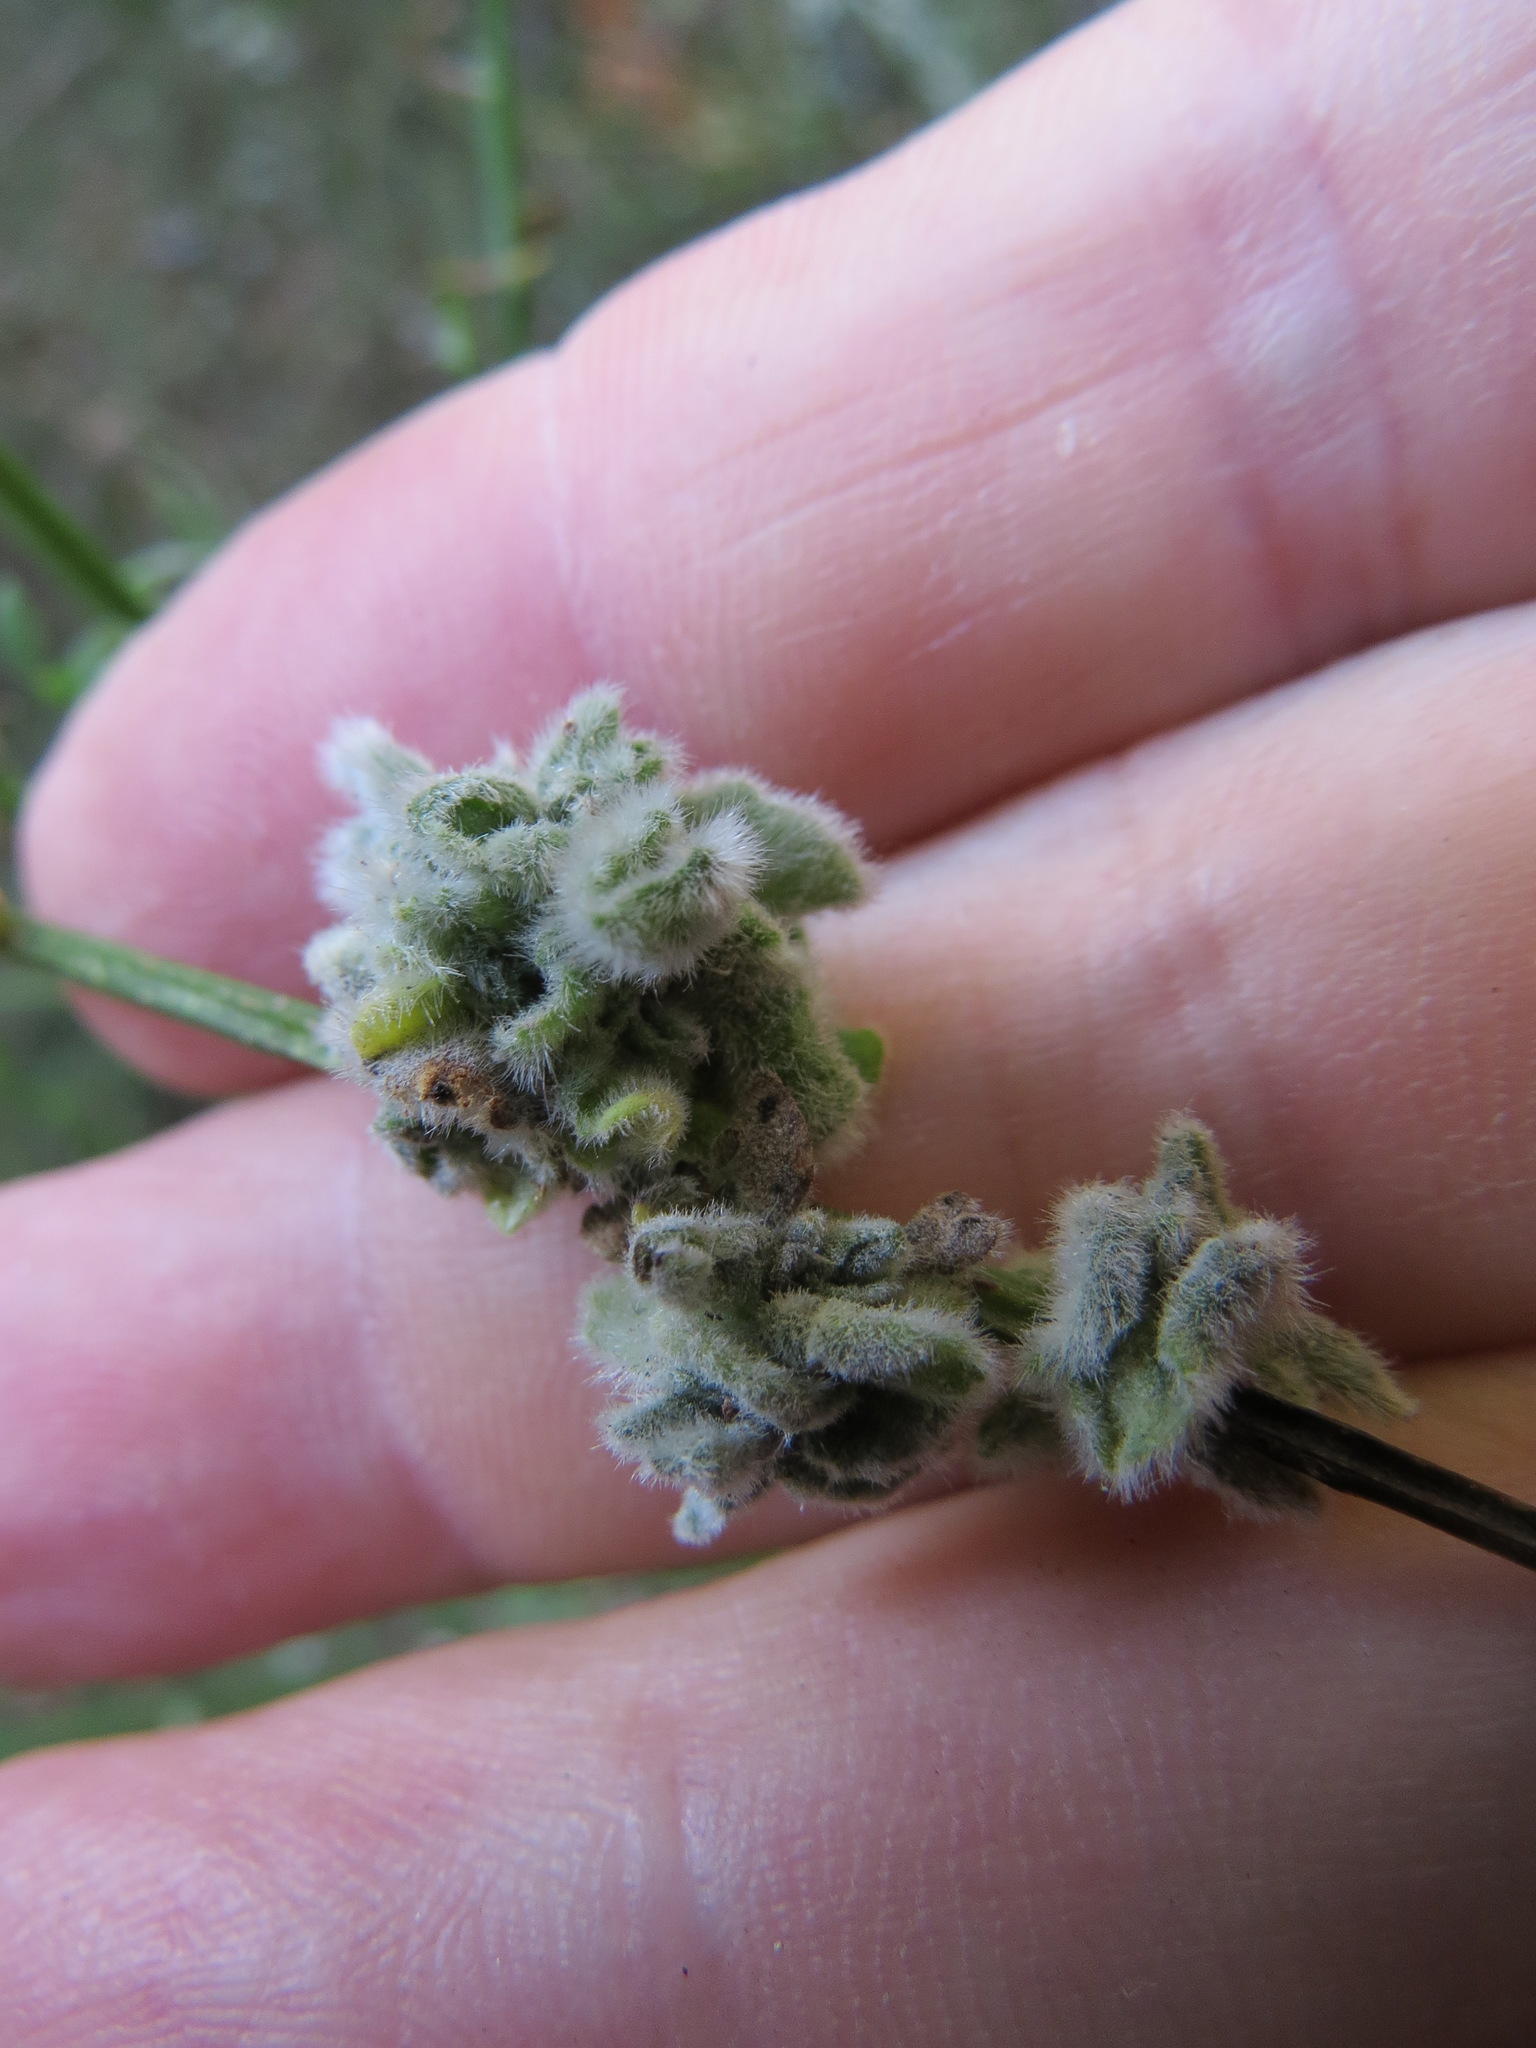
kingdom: Animalia
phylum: Arthropoda
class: Arachnida
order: Trombidiformes
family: Eriophyidae
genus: Aceria
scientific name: Aceria genistae
